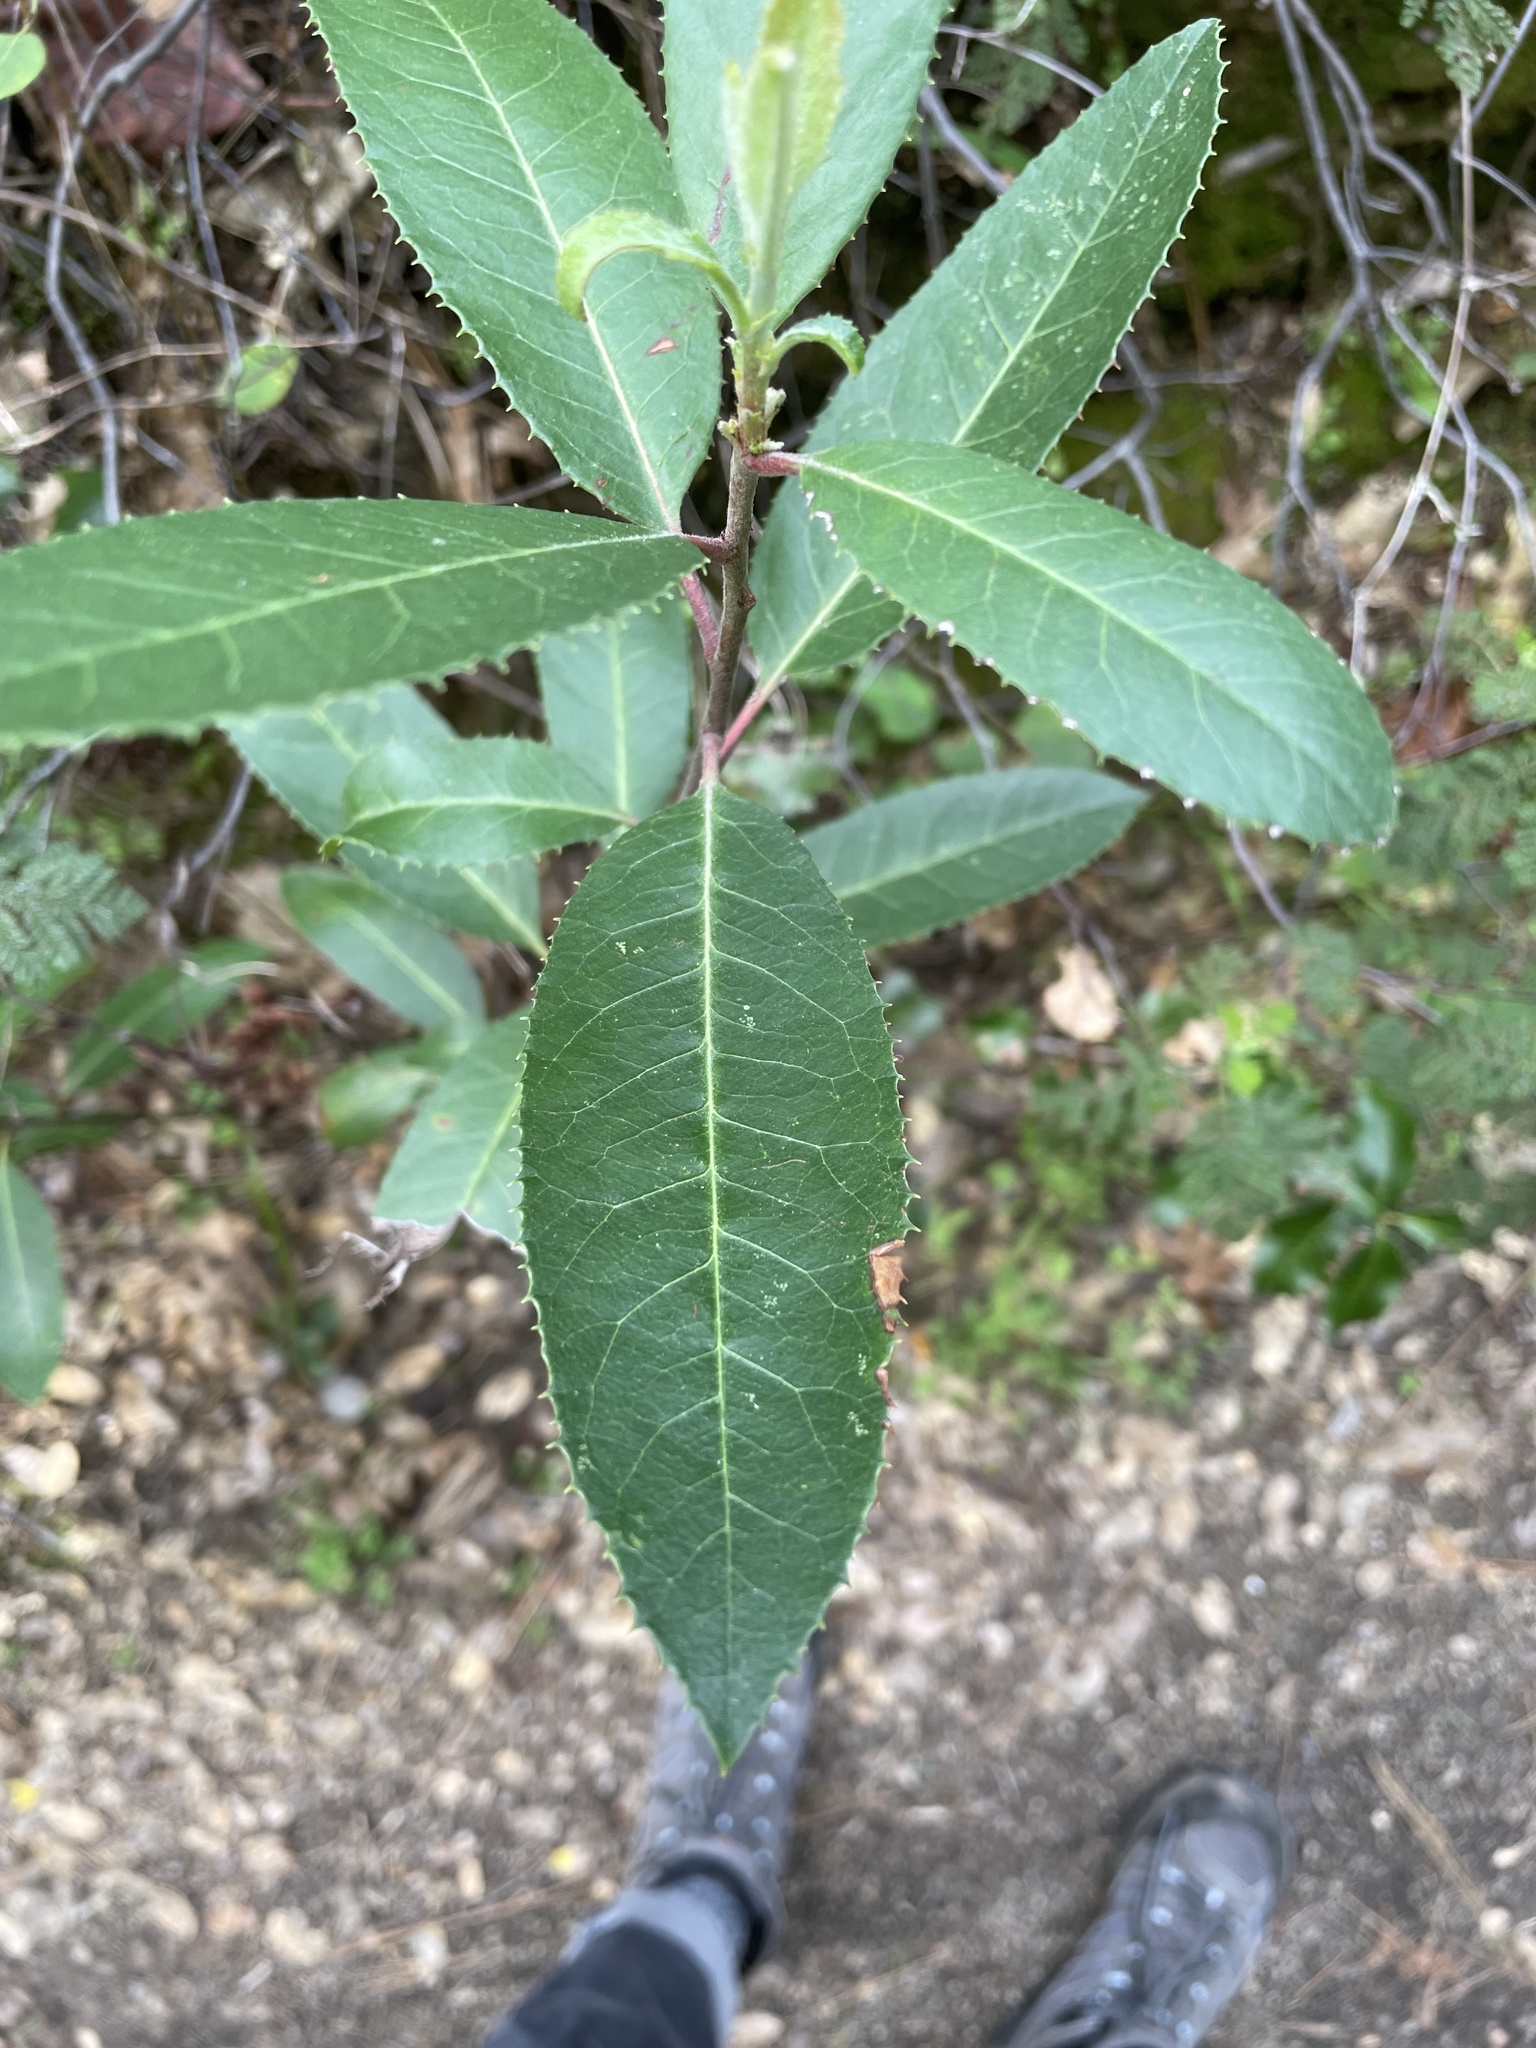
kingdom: Plantae
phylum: Tracheophyta
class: Magnoliopsida
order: Rosales
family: Rosaceae
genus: Heteromeles
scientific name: Heteromeles arbutifolia
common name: California-holly
